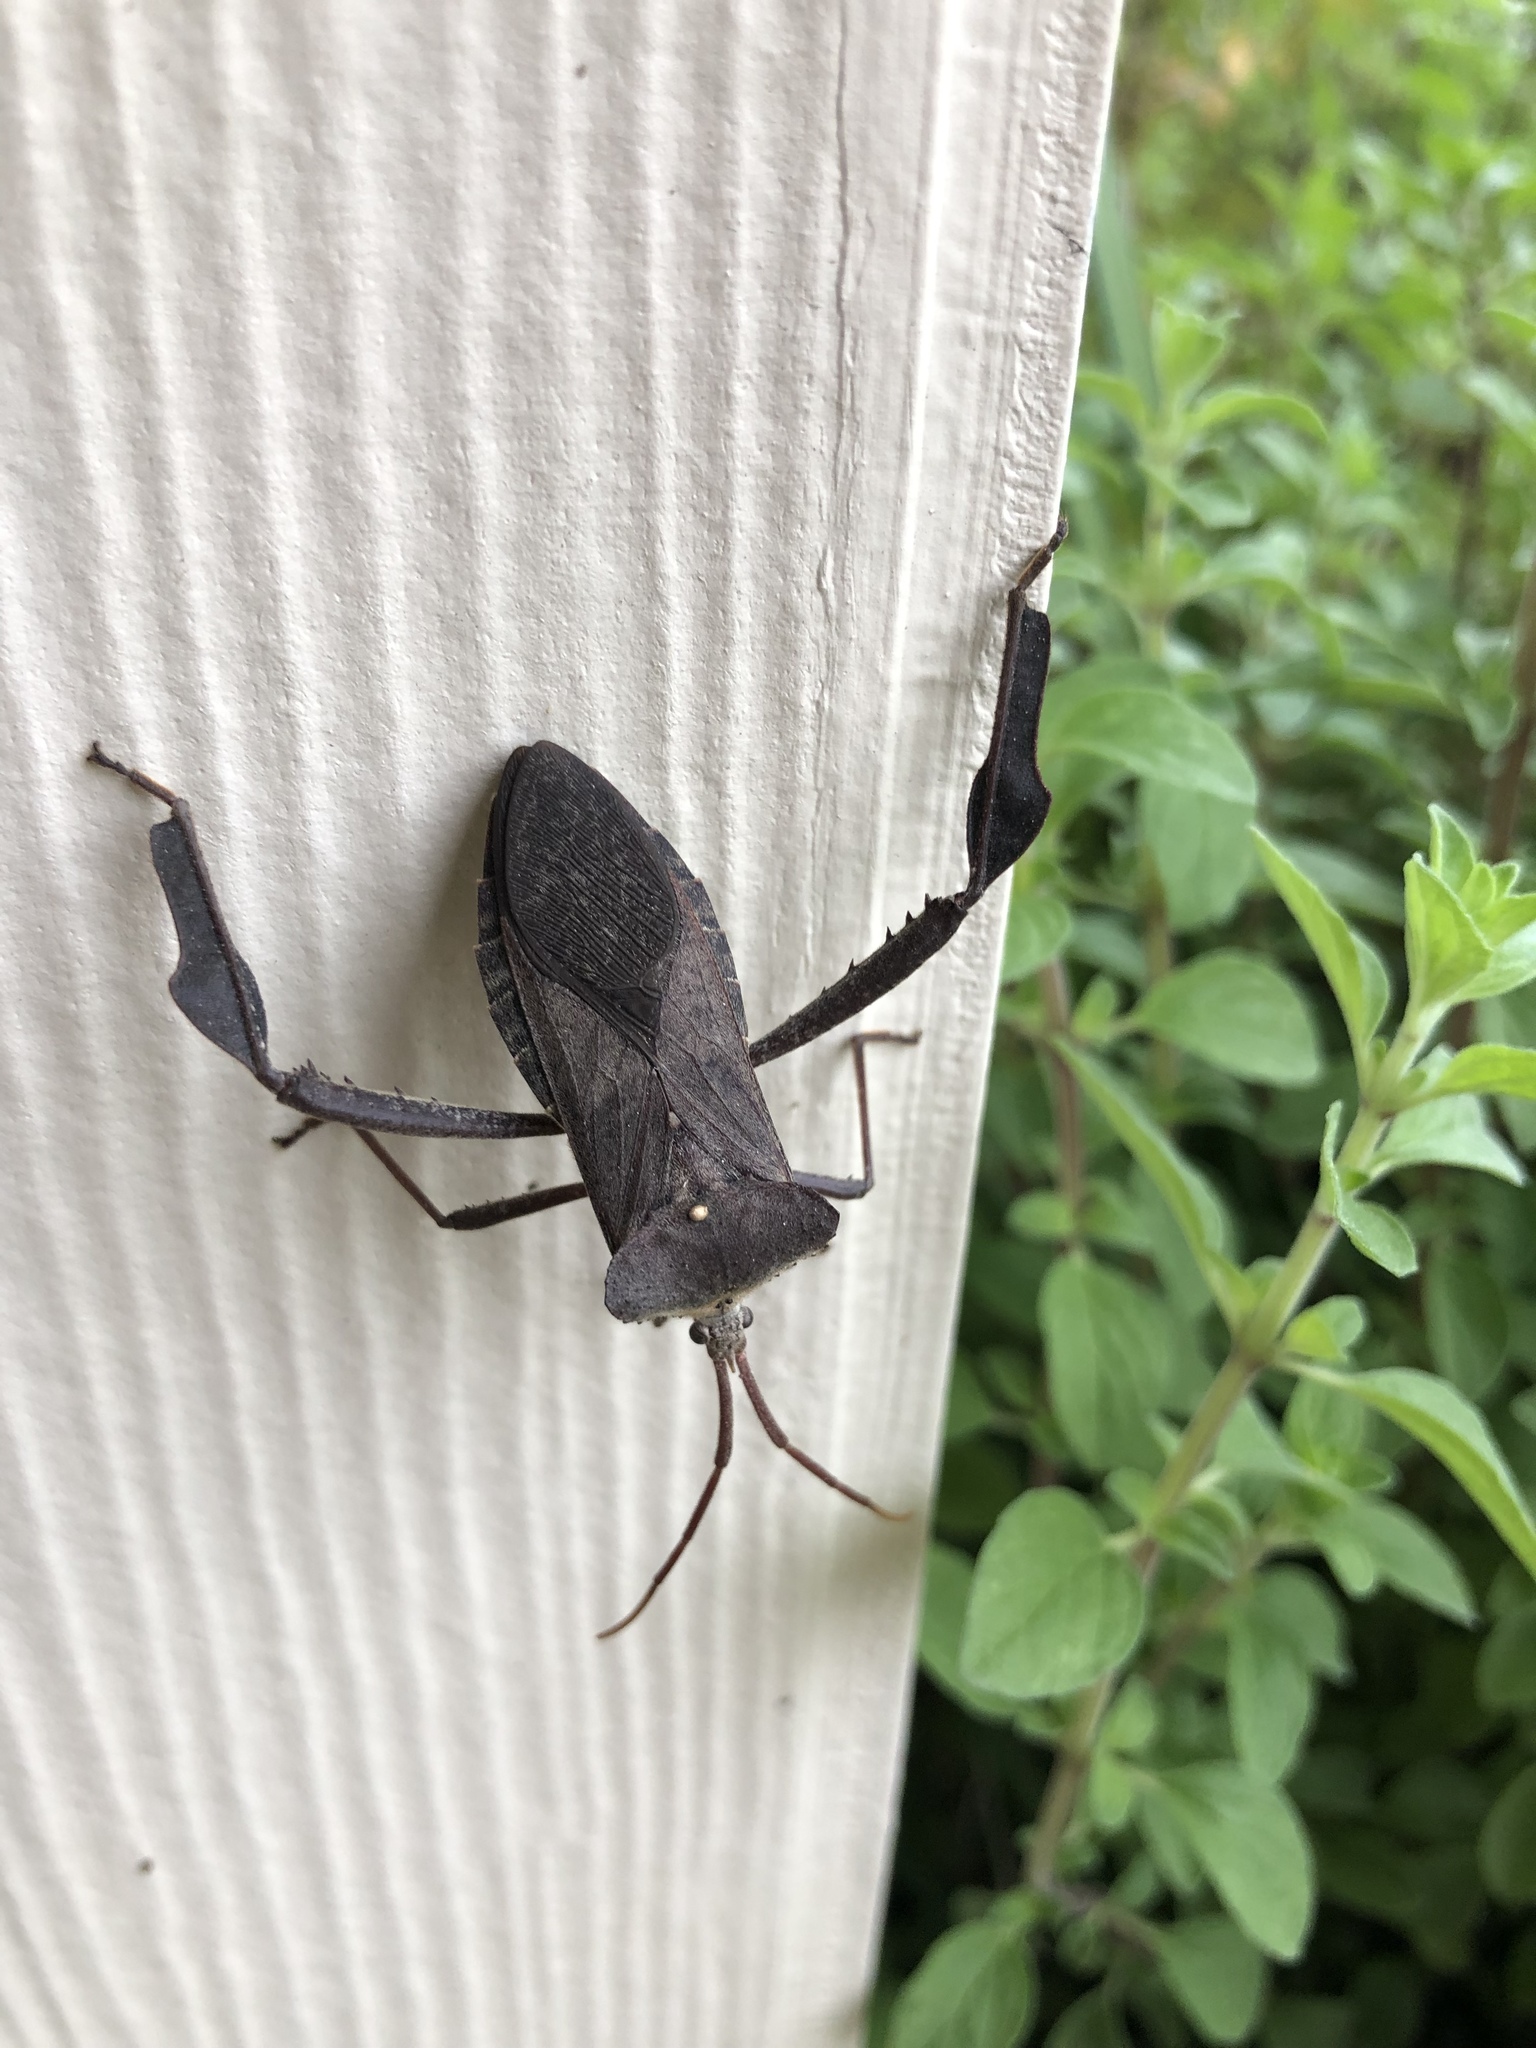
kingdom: Animalia
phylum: Arthropoda
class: Insecta
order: Hemiptera
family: Coreidae
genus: Acanthocephala
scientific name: Acanthocephala declivis
